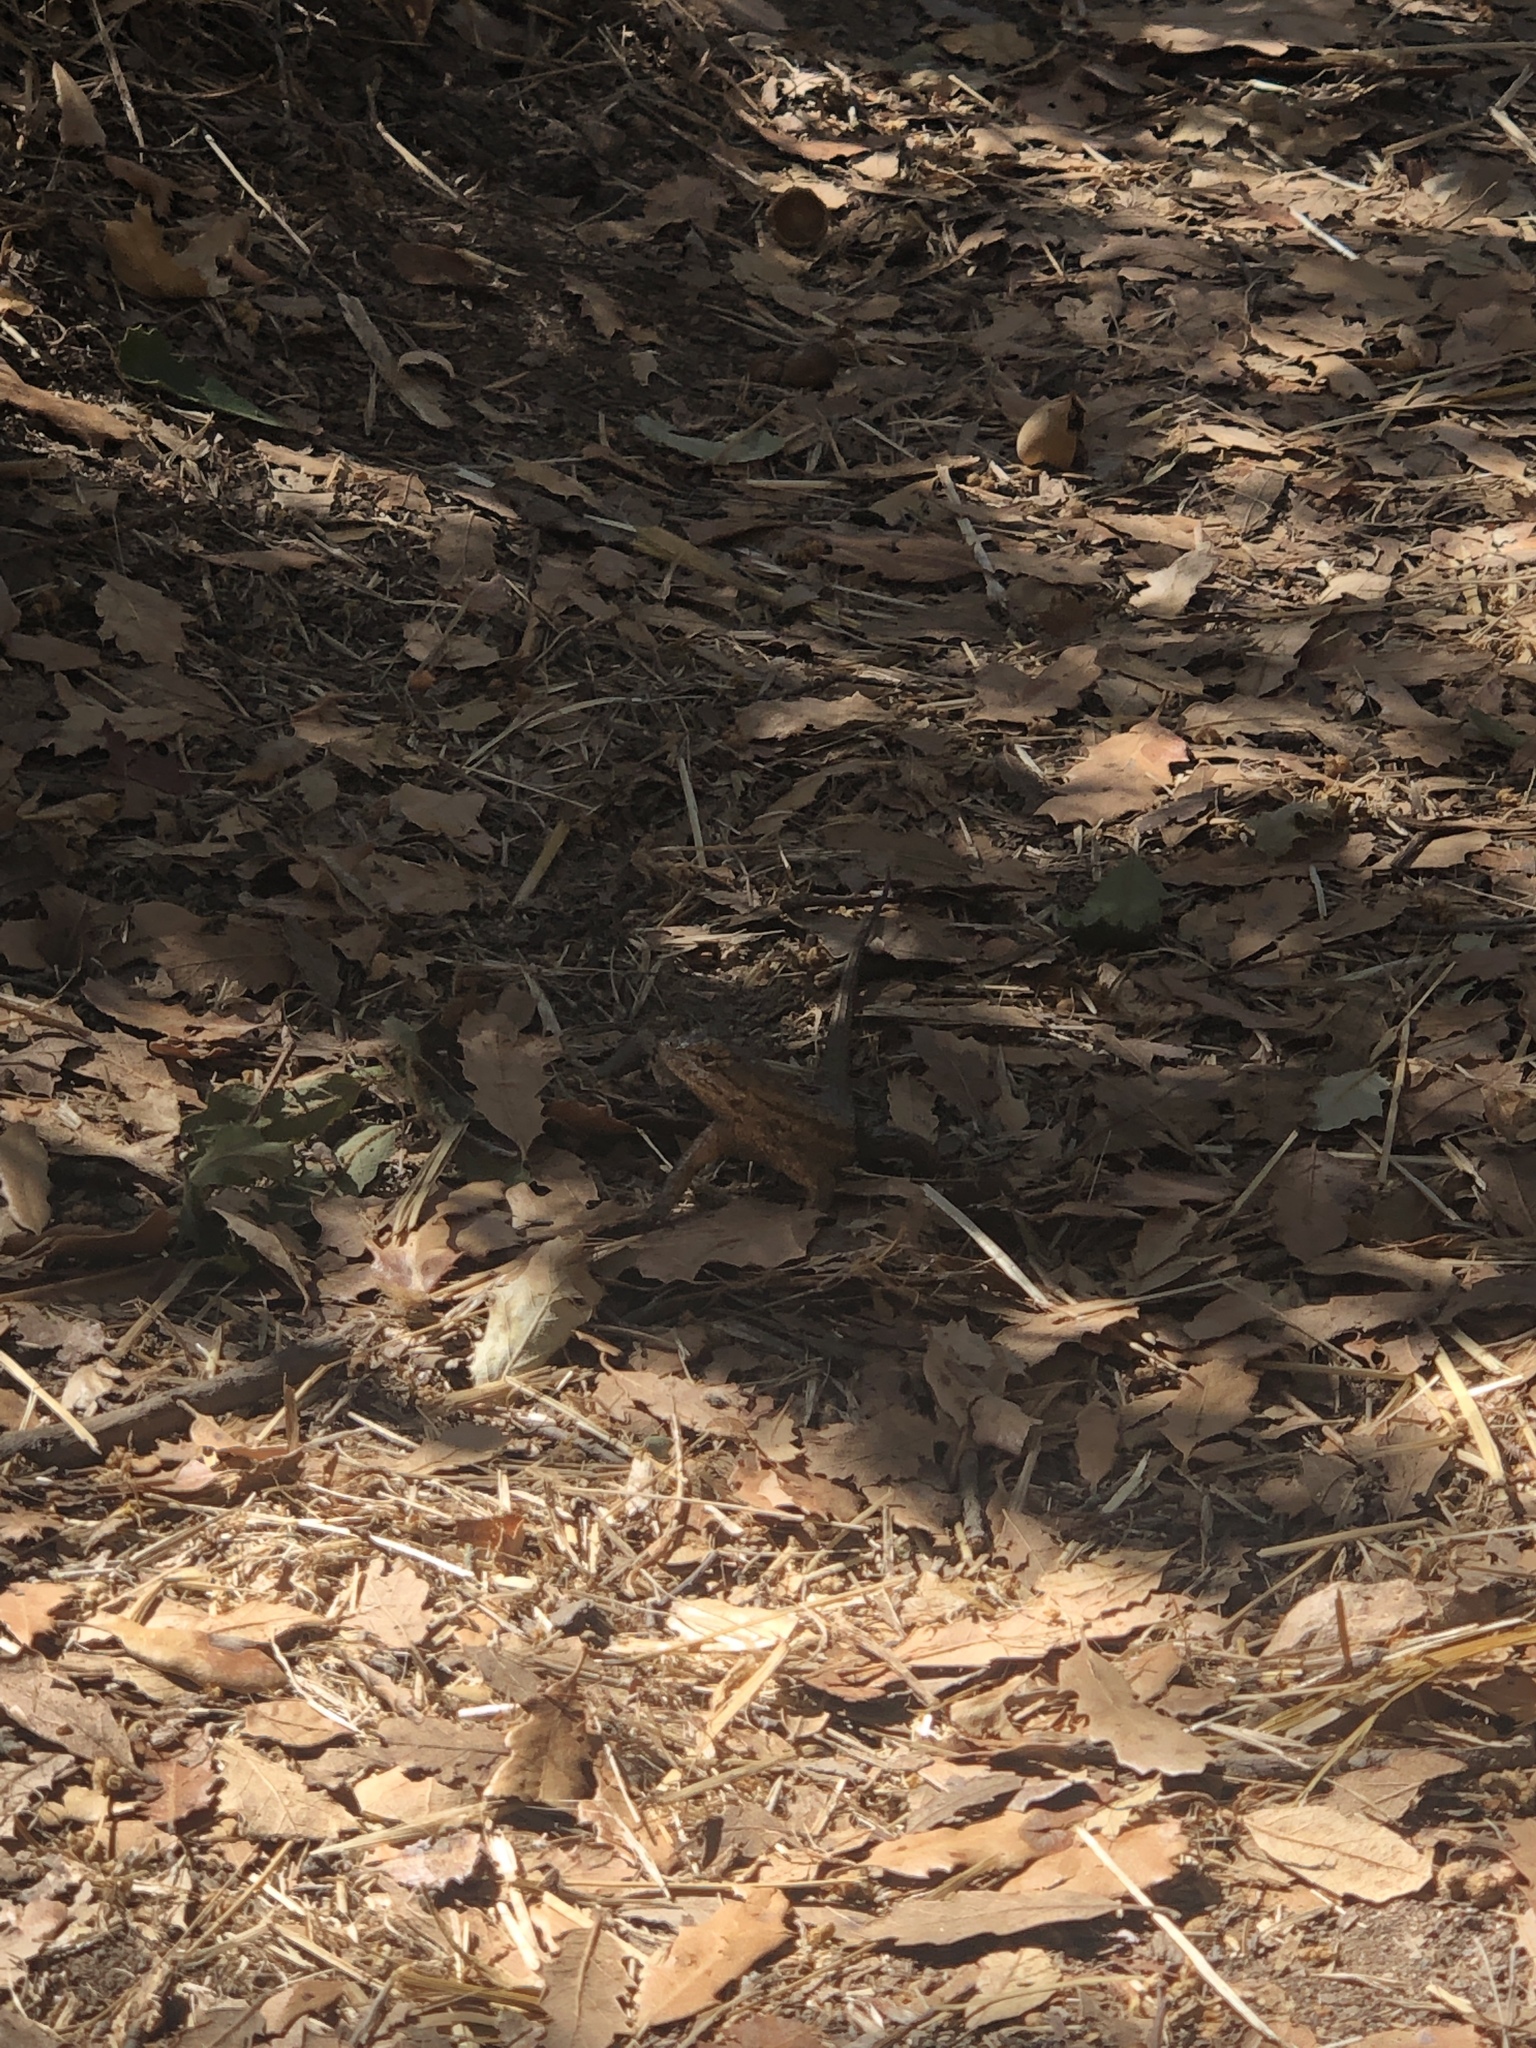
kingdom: Animalia
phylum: Chordata
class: Squamata
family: Phrynosomatidae
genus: Sceloporus
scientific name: Sceloporus occidentalis
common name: Western fence lizard
